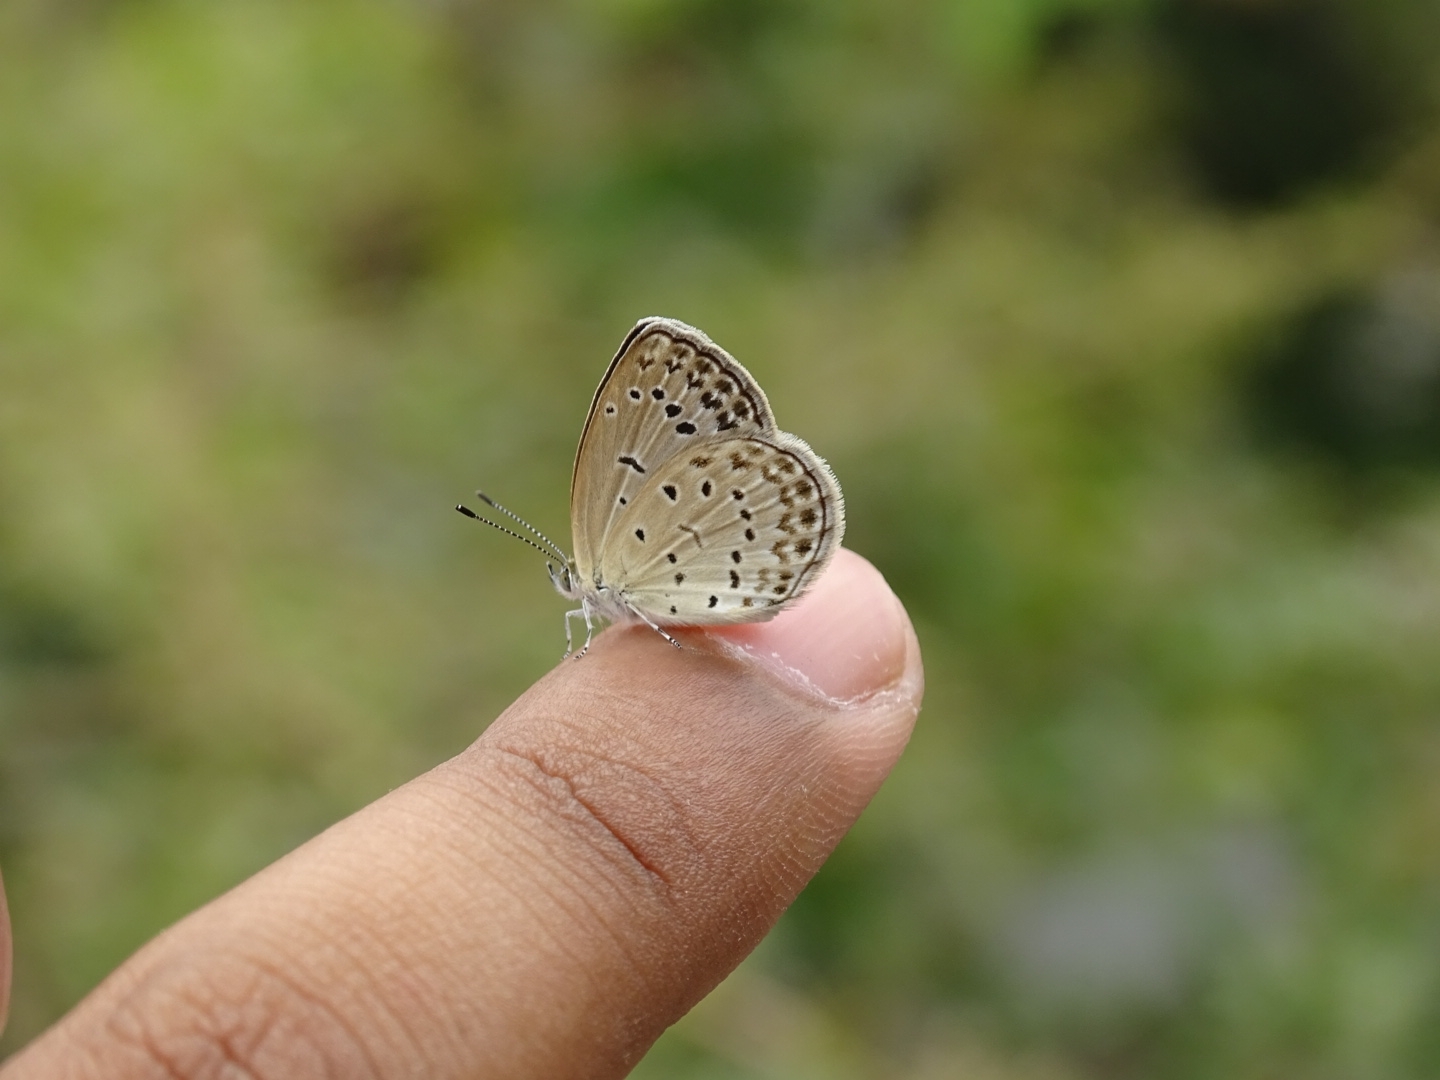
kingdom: Animalia
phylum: Arthropoda
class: Insecta
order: Lepidoptera
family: Lycaenidae
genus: Pseudozizeeria
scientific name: Pseudozizeeria maha
